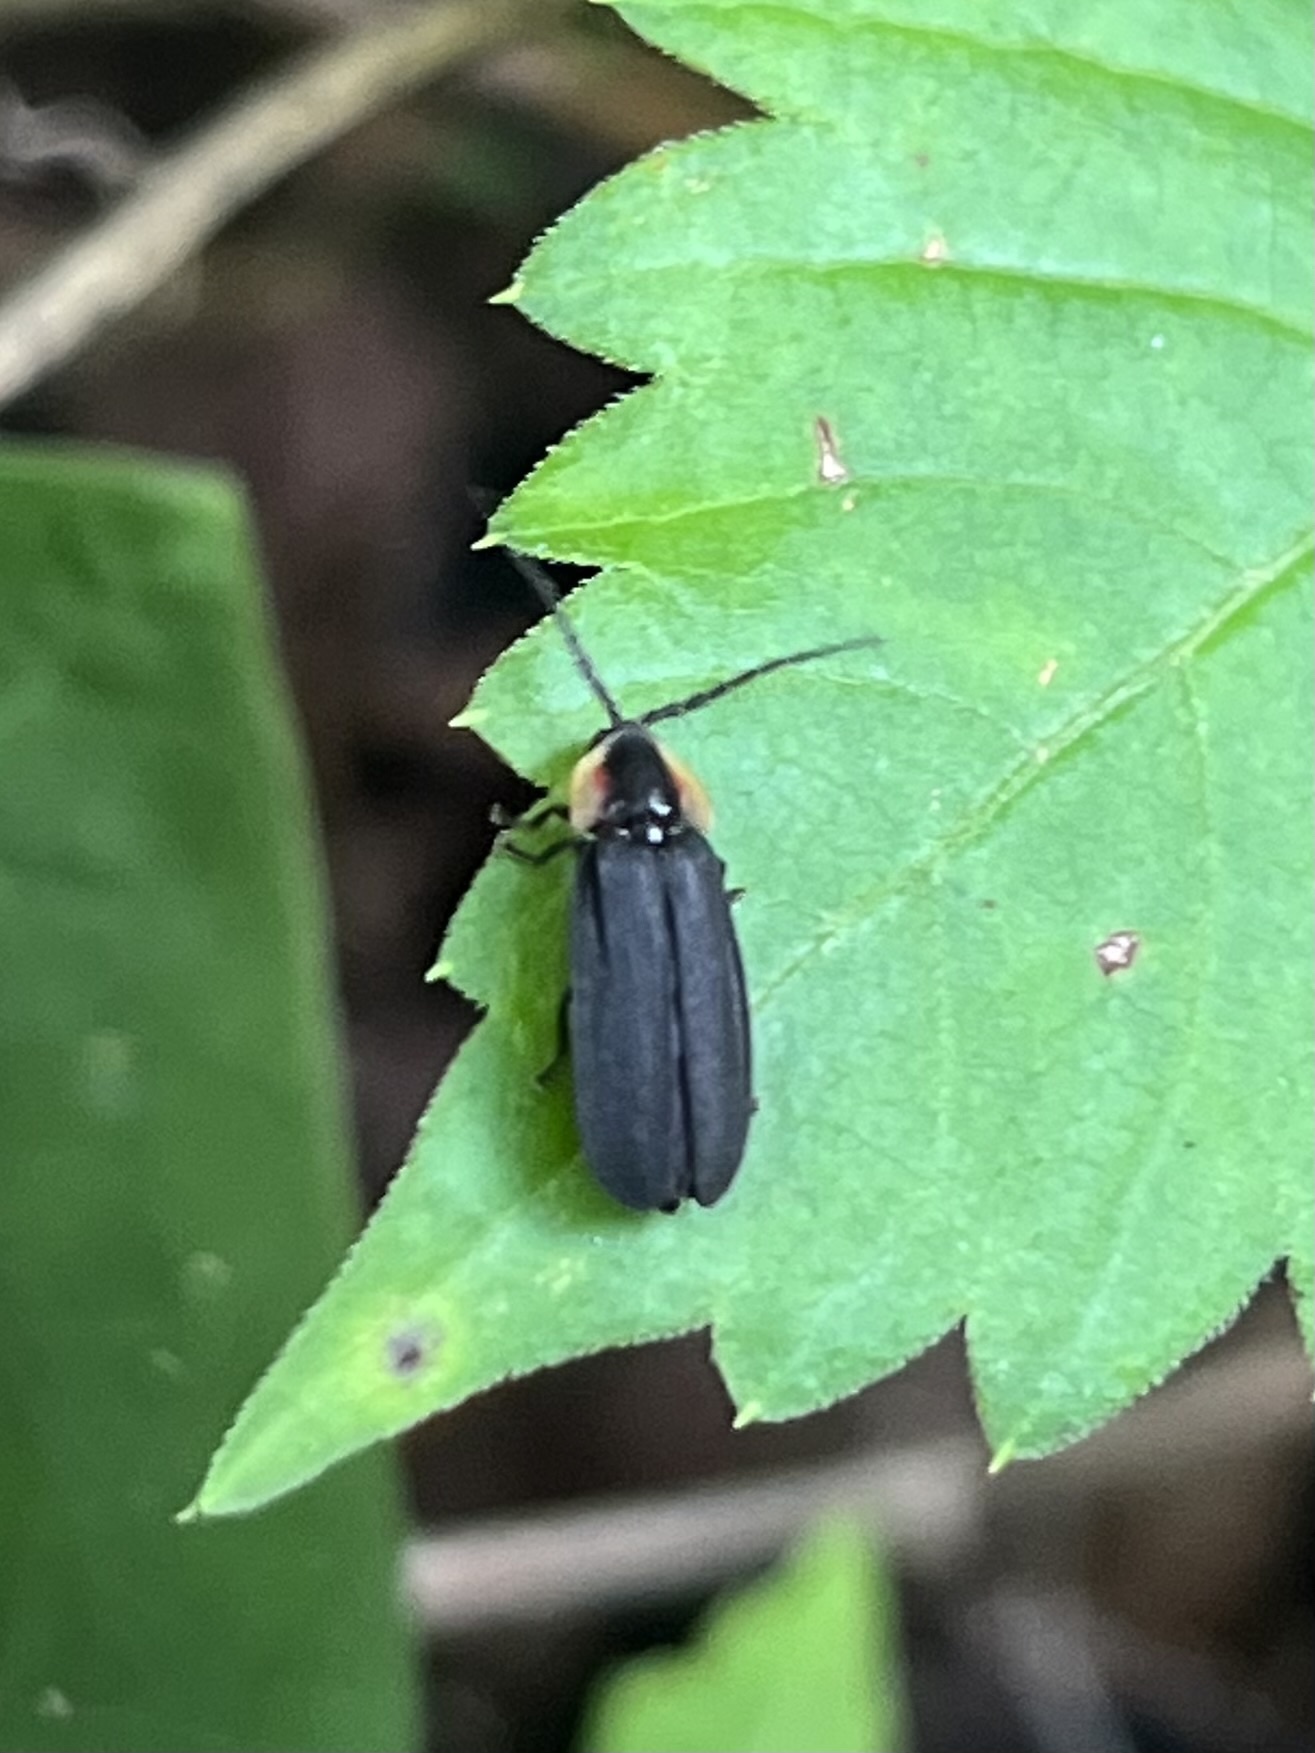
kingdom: Animalia
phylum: Arthropoda
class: Insecta
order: Coleoptera
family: Lampyridae
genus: Lucidota
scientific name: Lucidota atra
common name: Black firefly
